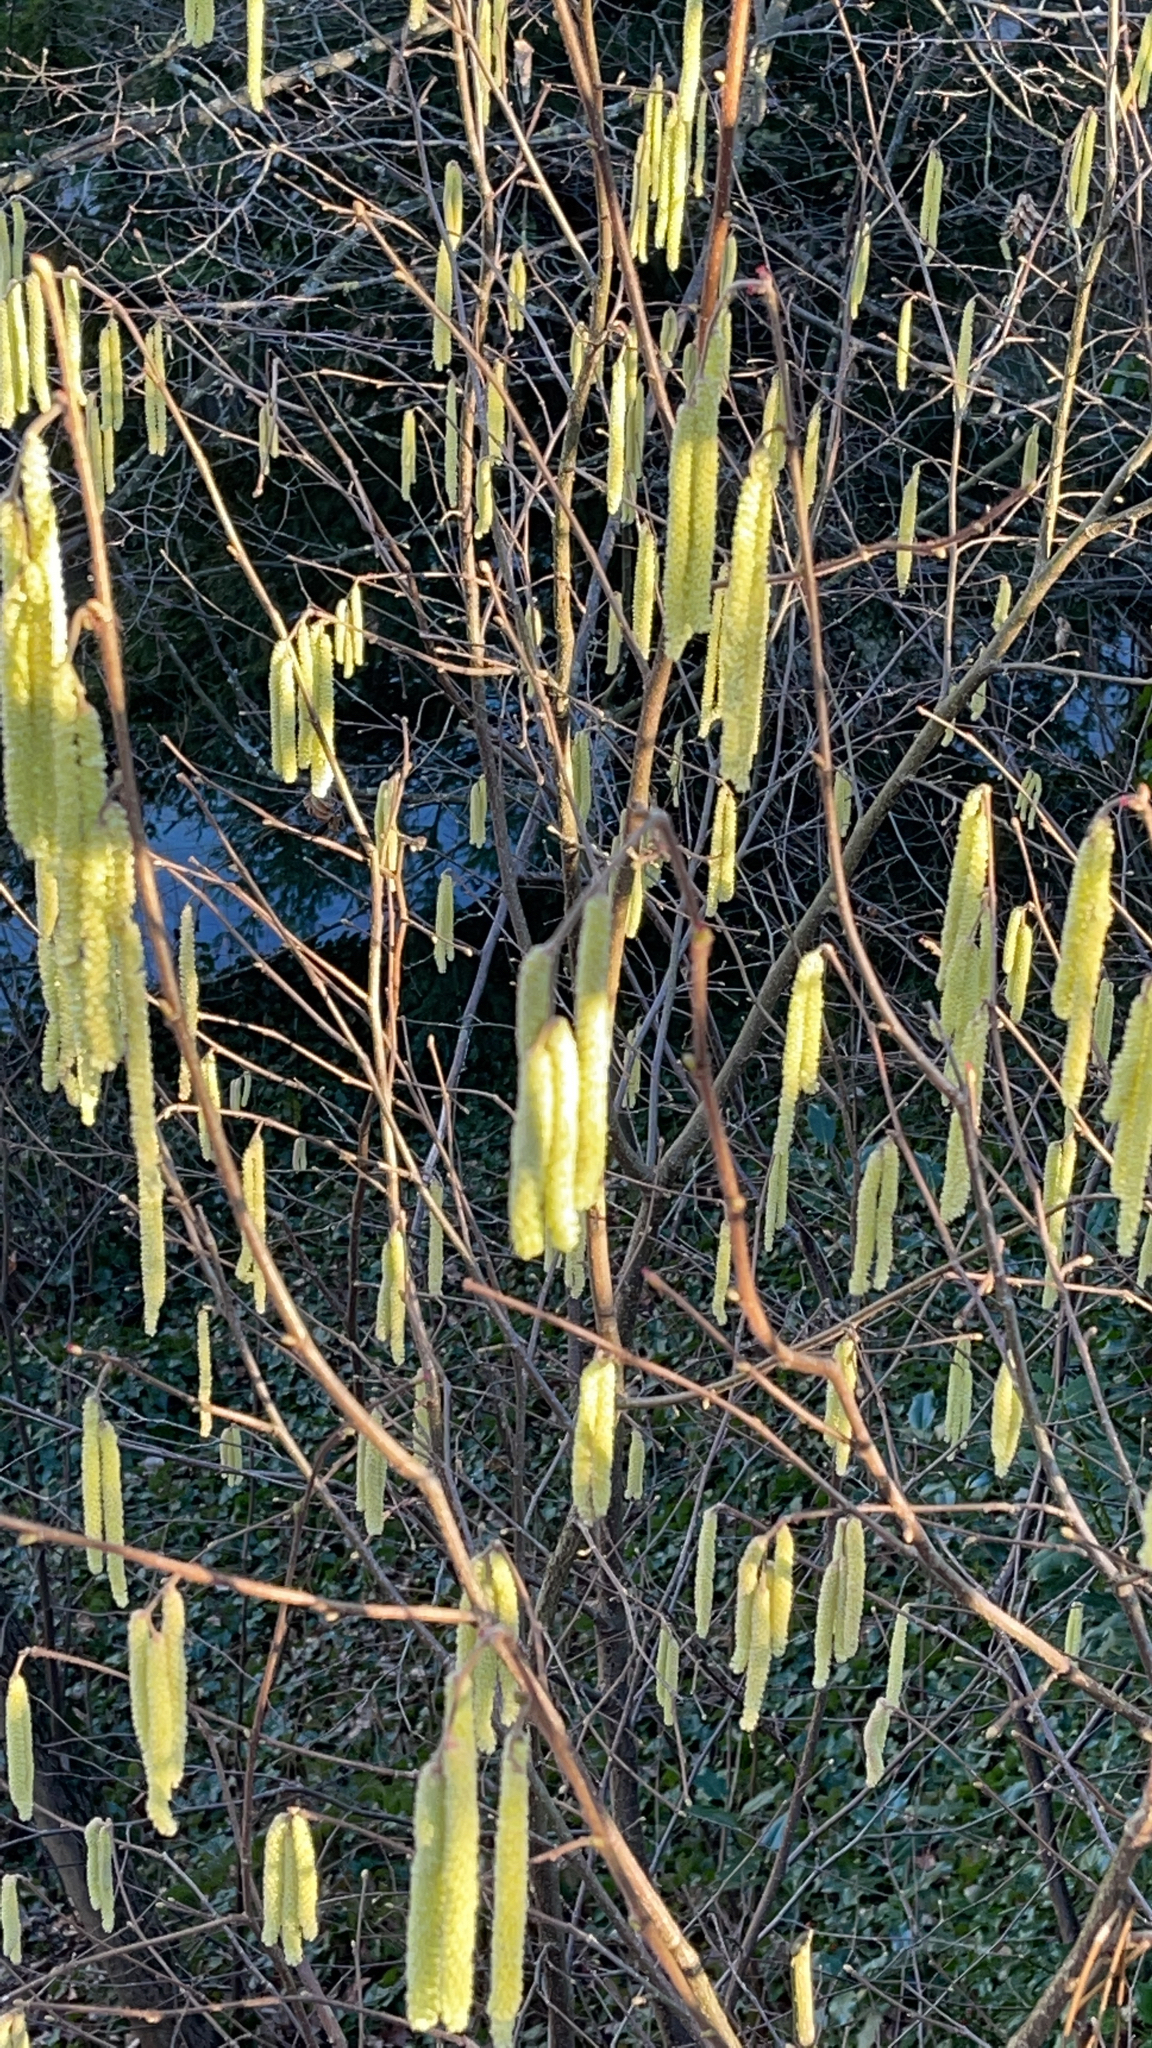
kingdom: Plantae
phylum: Tracheophyta
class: Magnoliopsida
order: Fagales
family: Betulaceae
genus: Corylus
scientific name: Corylus avellana
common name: European hazel
